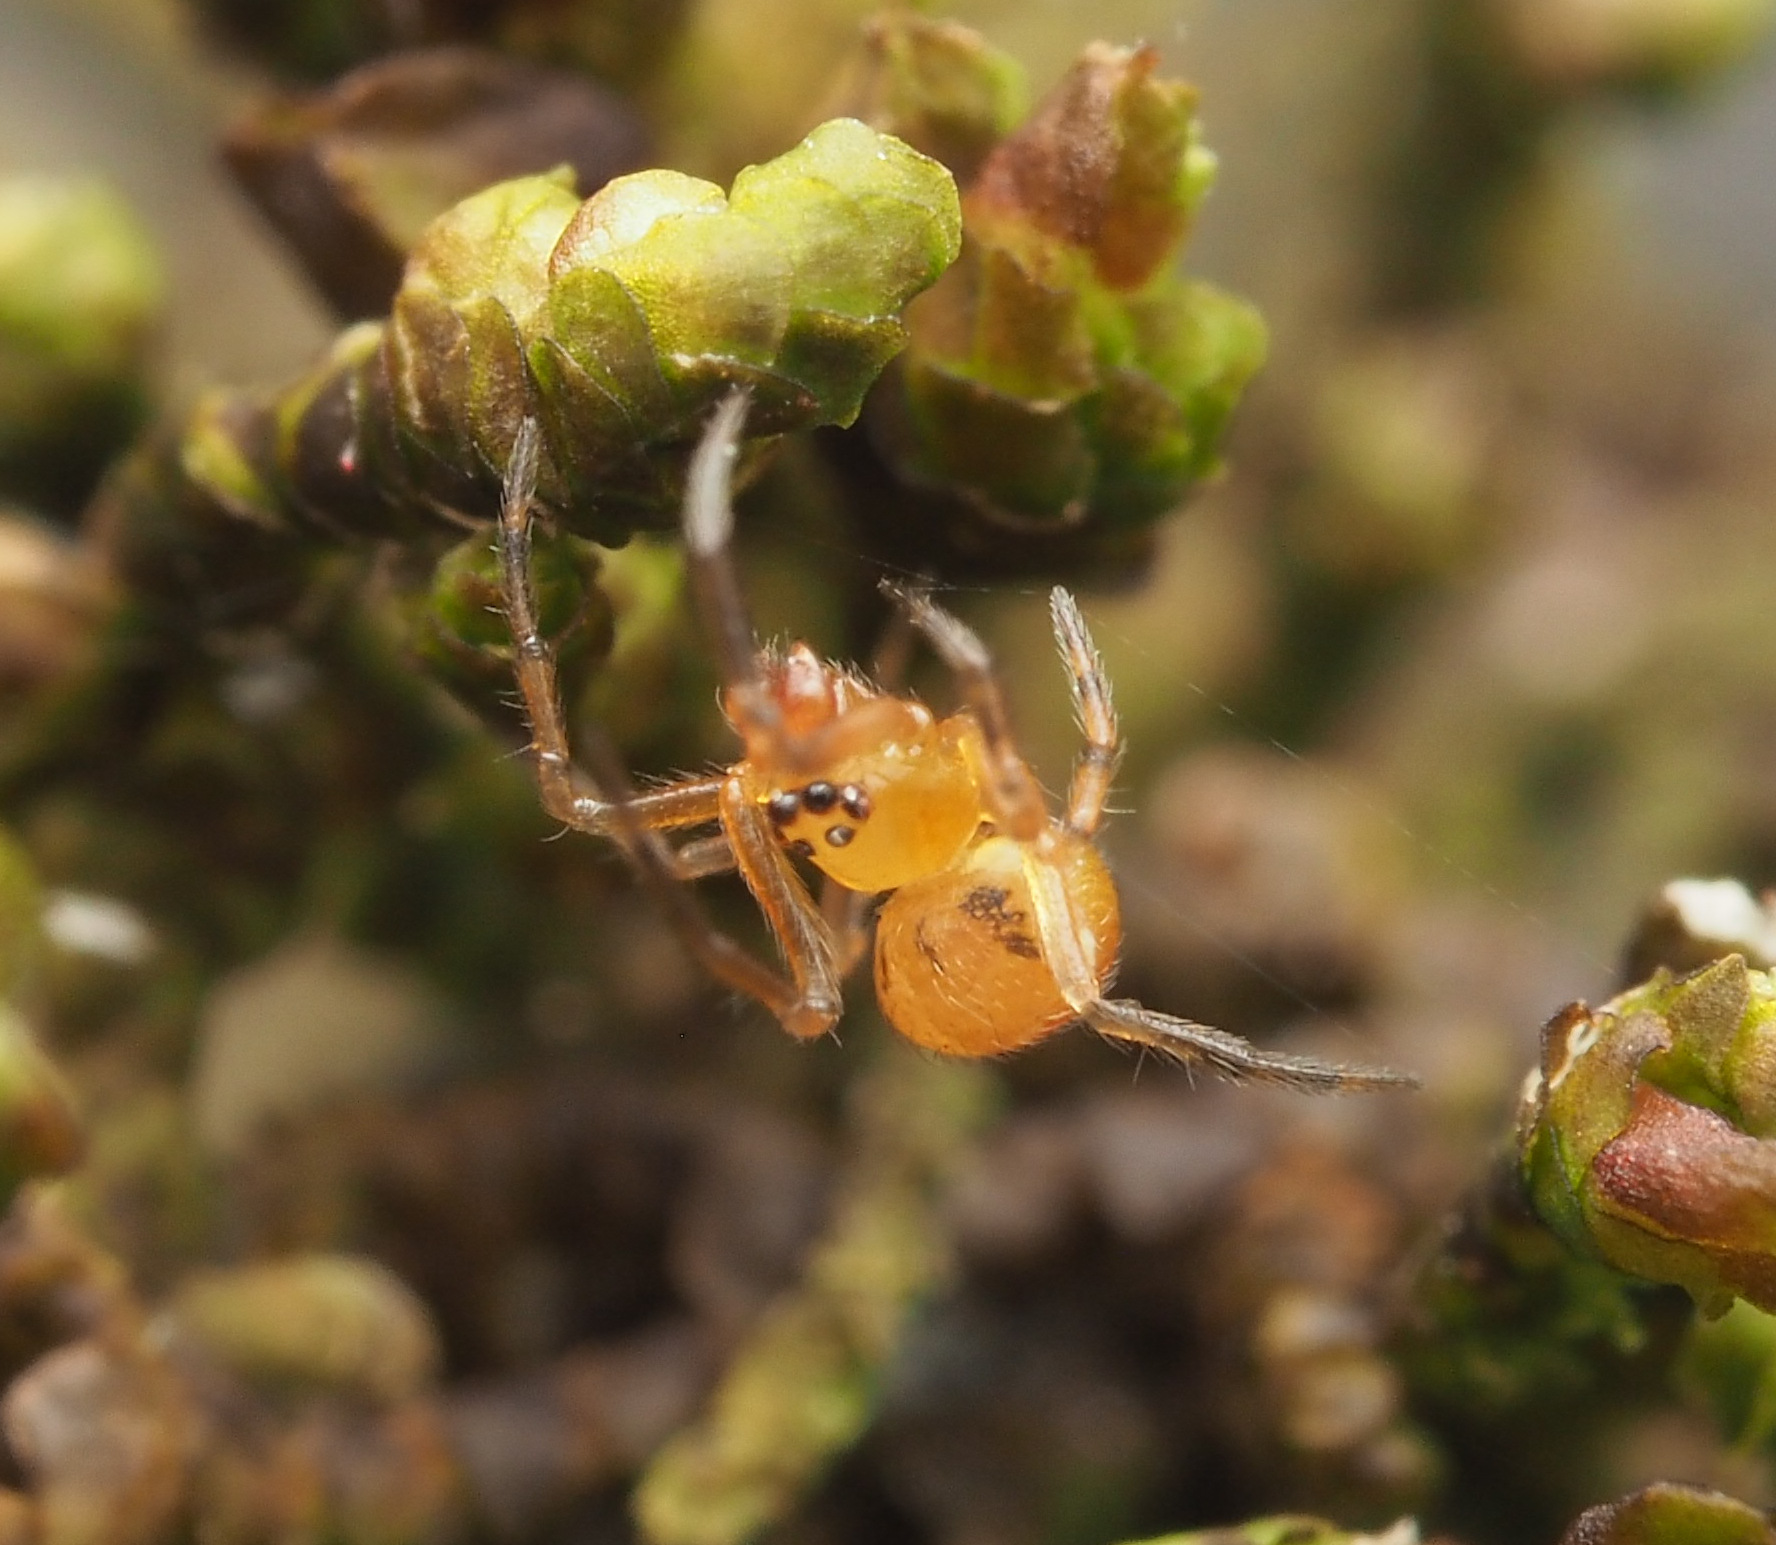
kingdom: Animalia
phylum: Arthropoda
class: Arachnida
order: Araneae
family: Theridiidae
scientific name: Theridiidae
